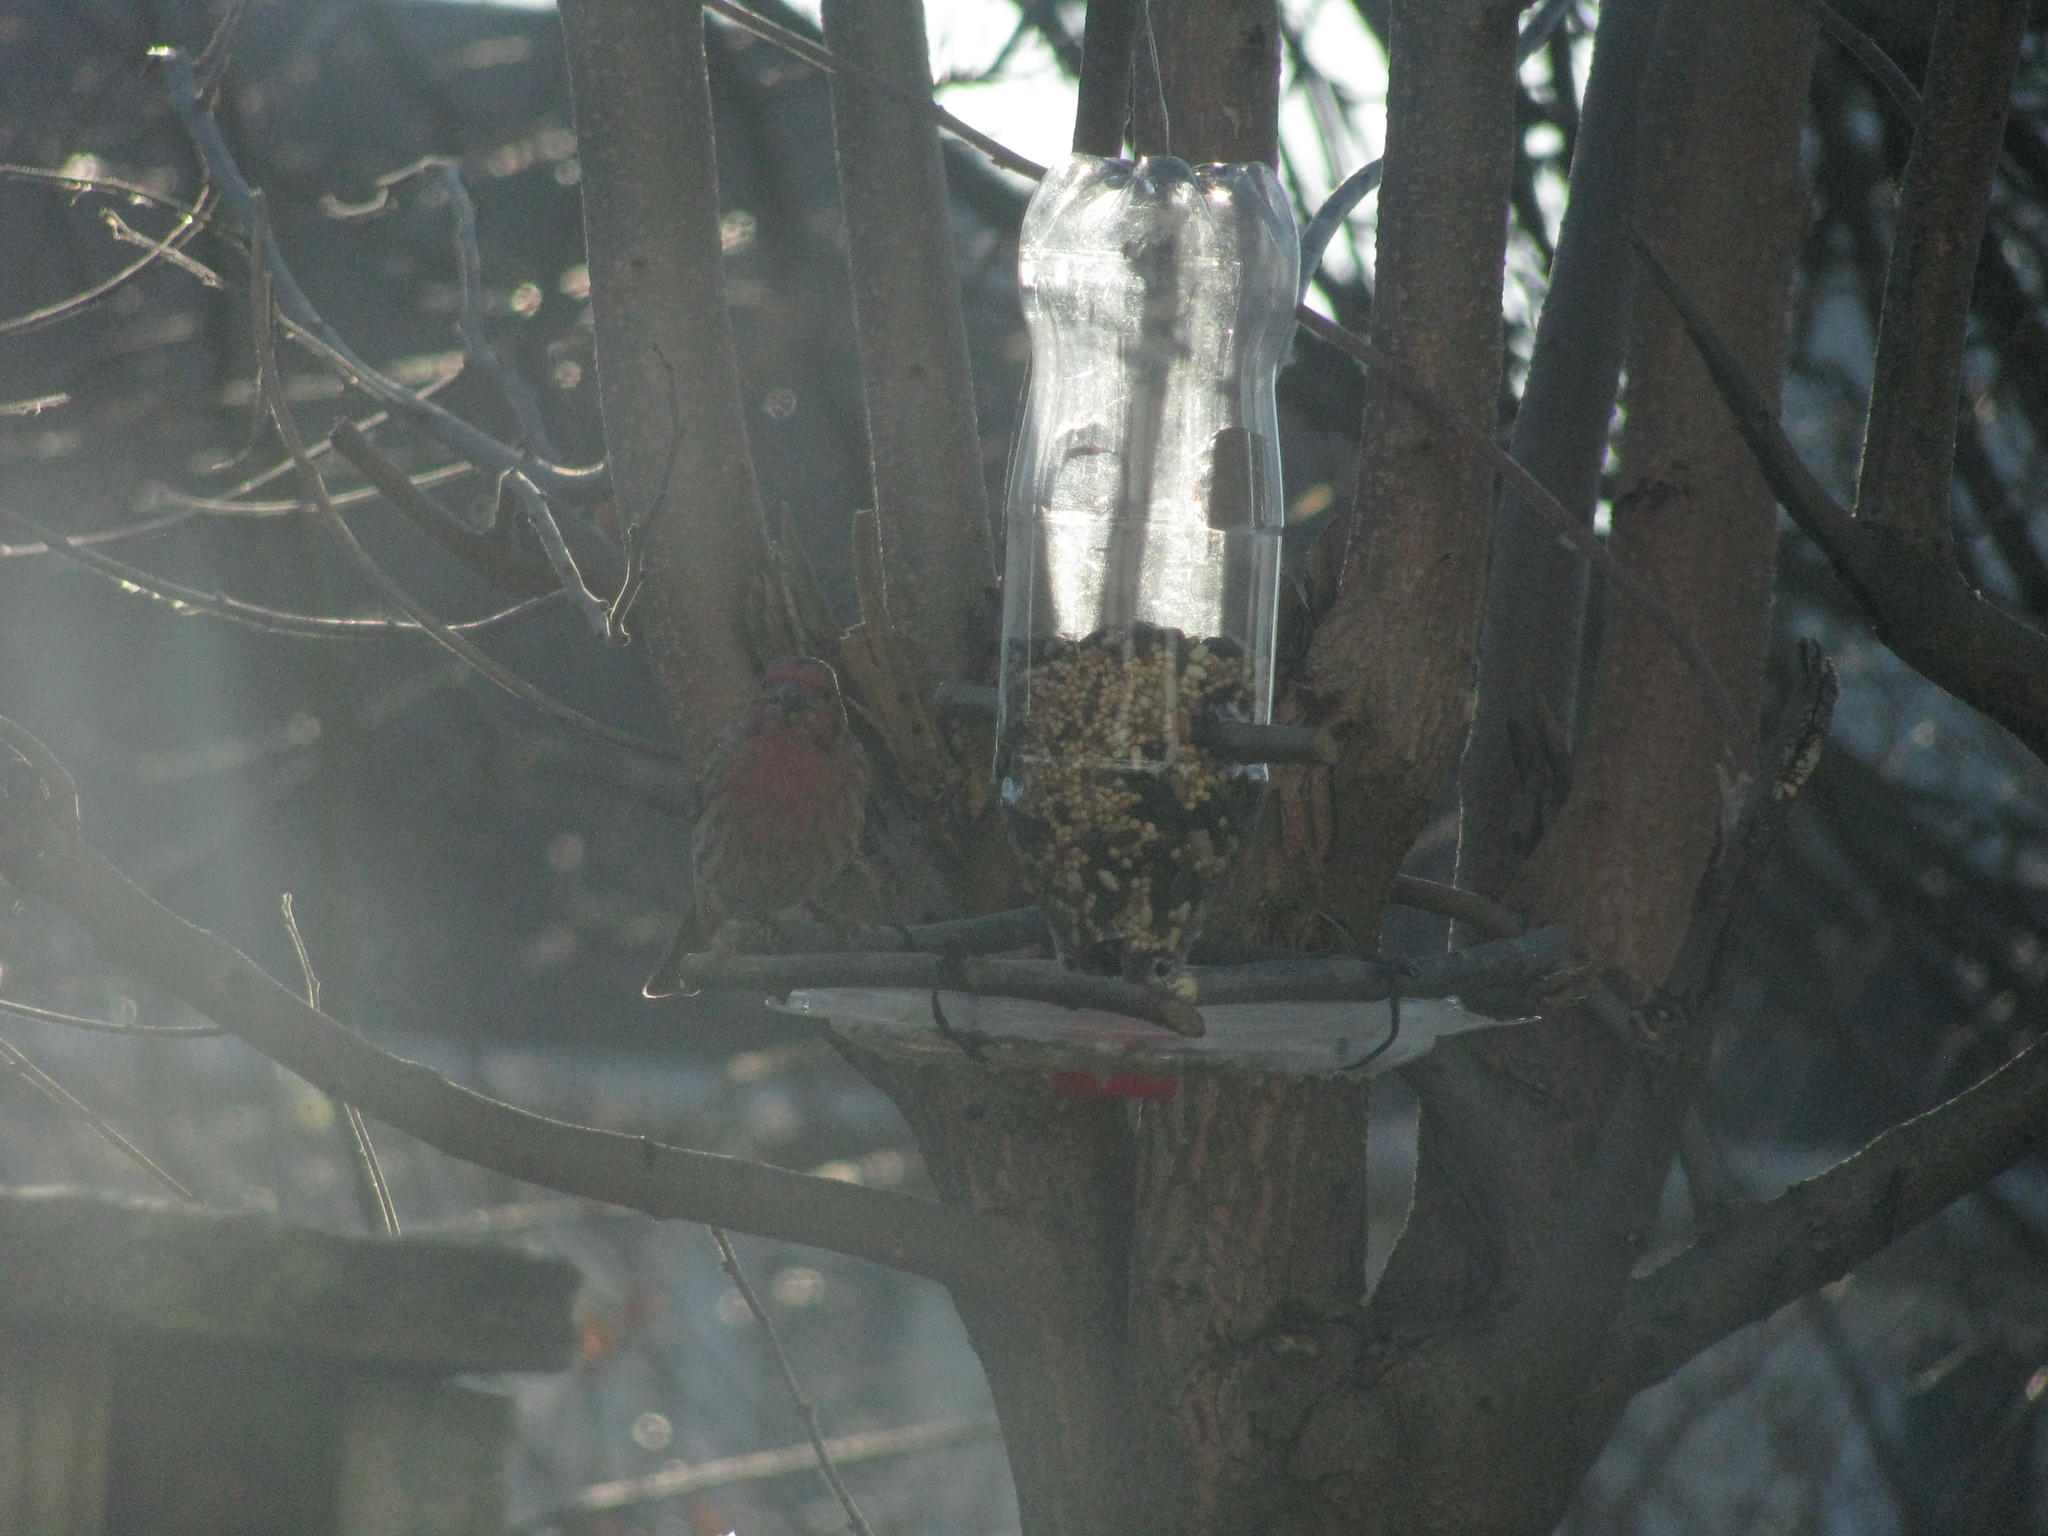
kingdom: Animalia
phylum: Chordata
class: Aves
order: Passeriformes
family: Fringillidae
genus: Haemorhous
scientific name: Haemorhous mexicanus
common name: House finch
